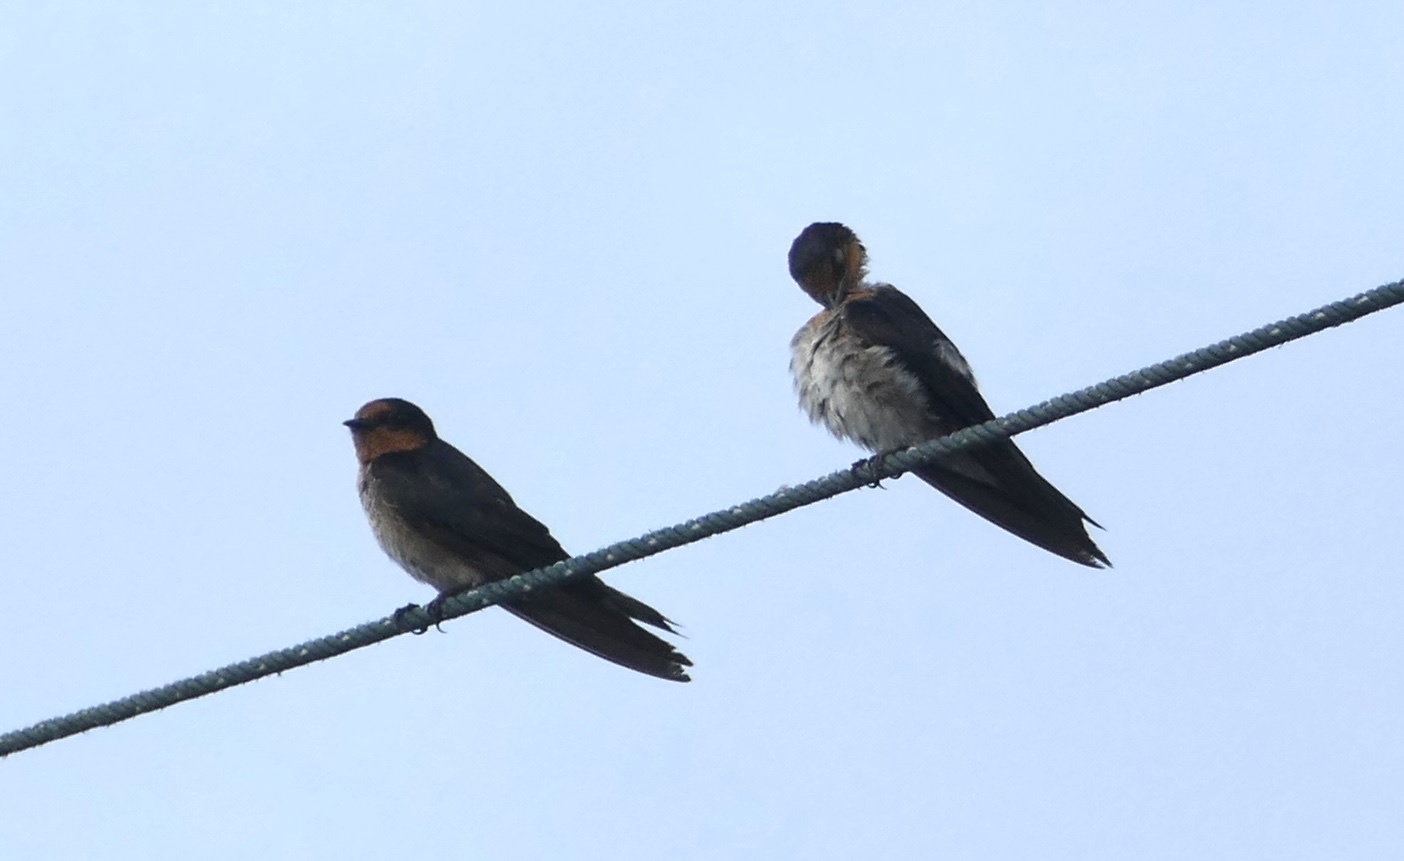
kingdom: Animalia
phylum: Chordata
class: Aves
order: Passeriformes
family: Hirundinidae
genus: Hirundo
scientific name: Hirundo tahitica
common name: Pacific swallow
